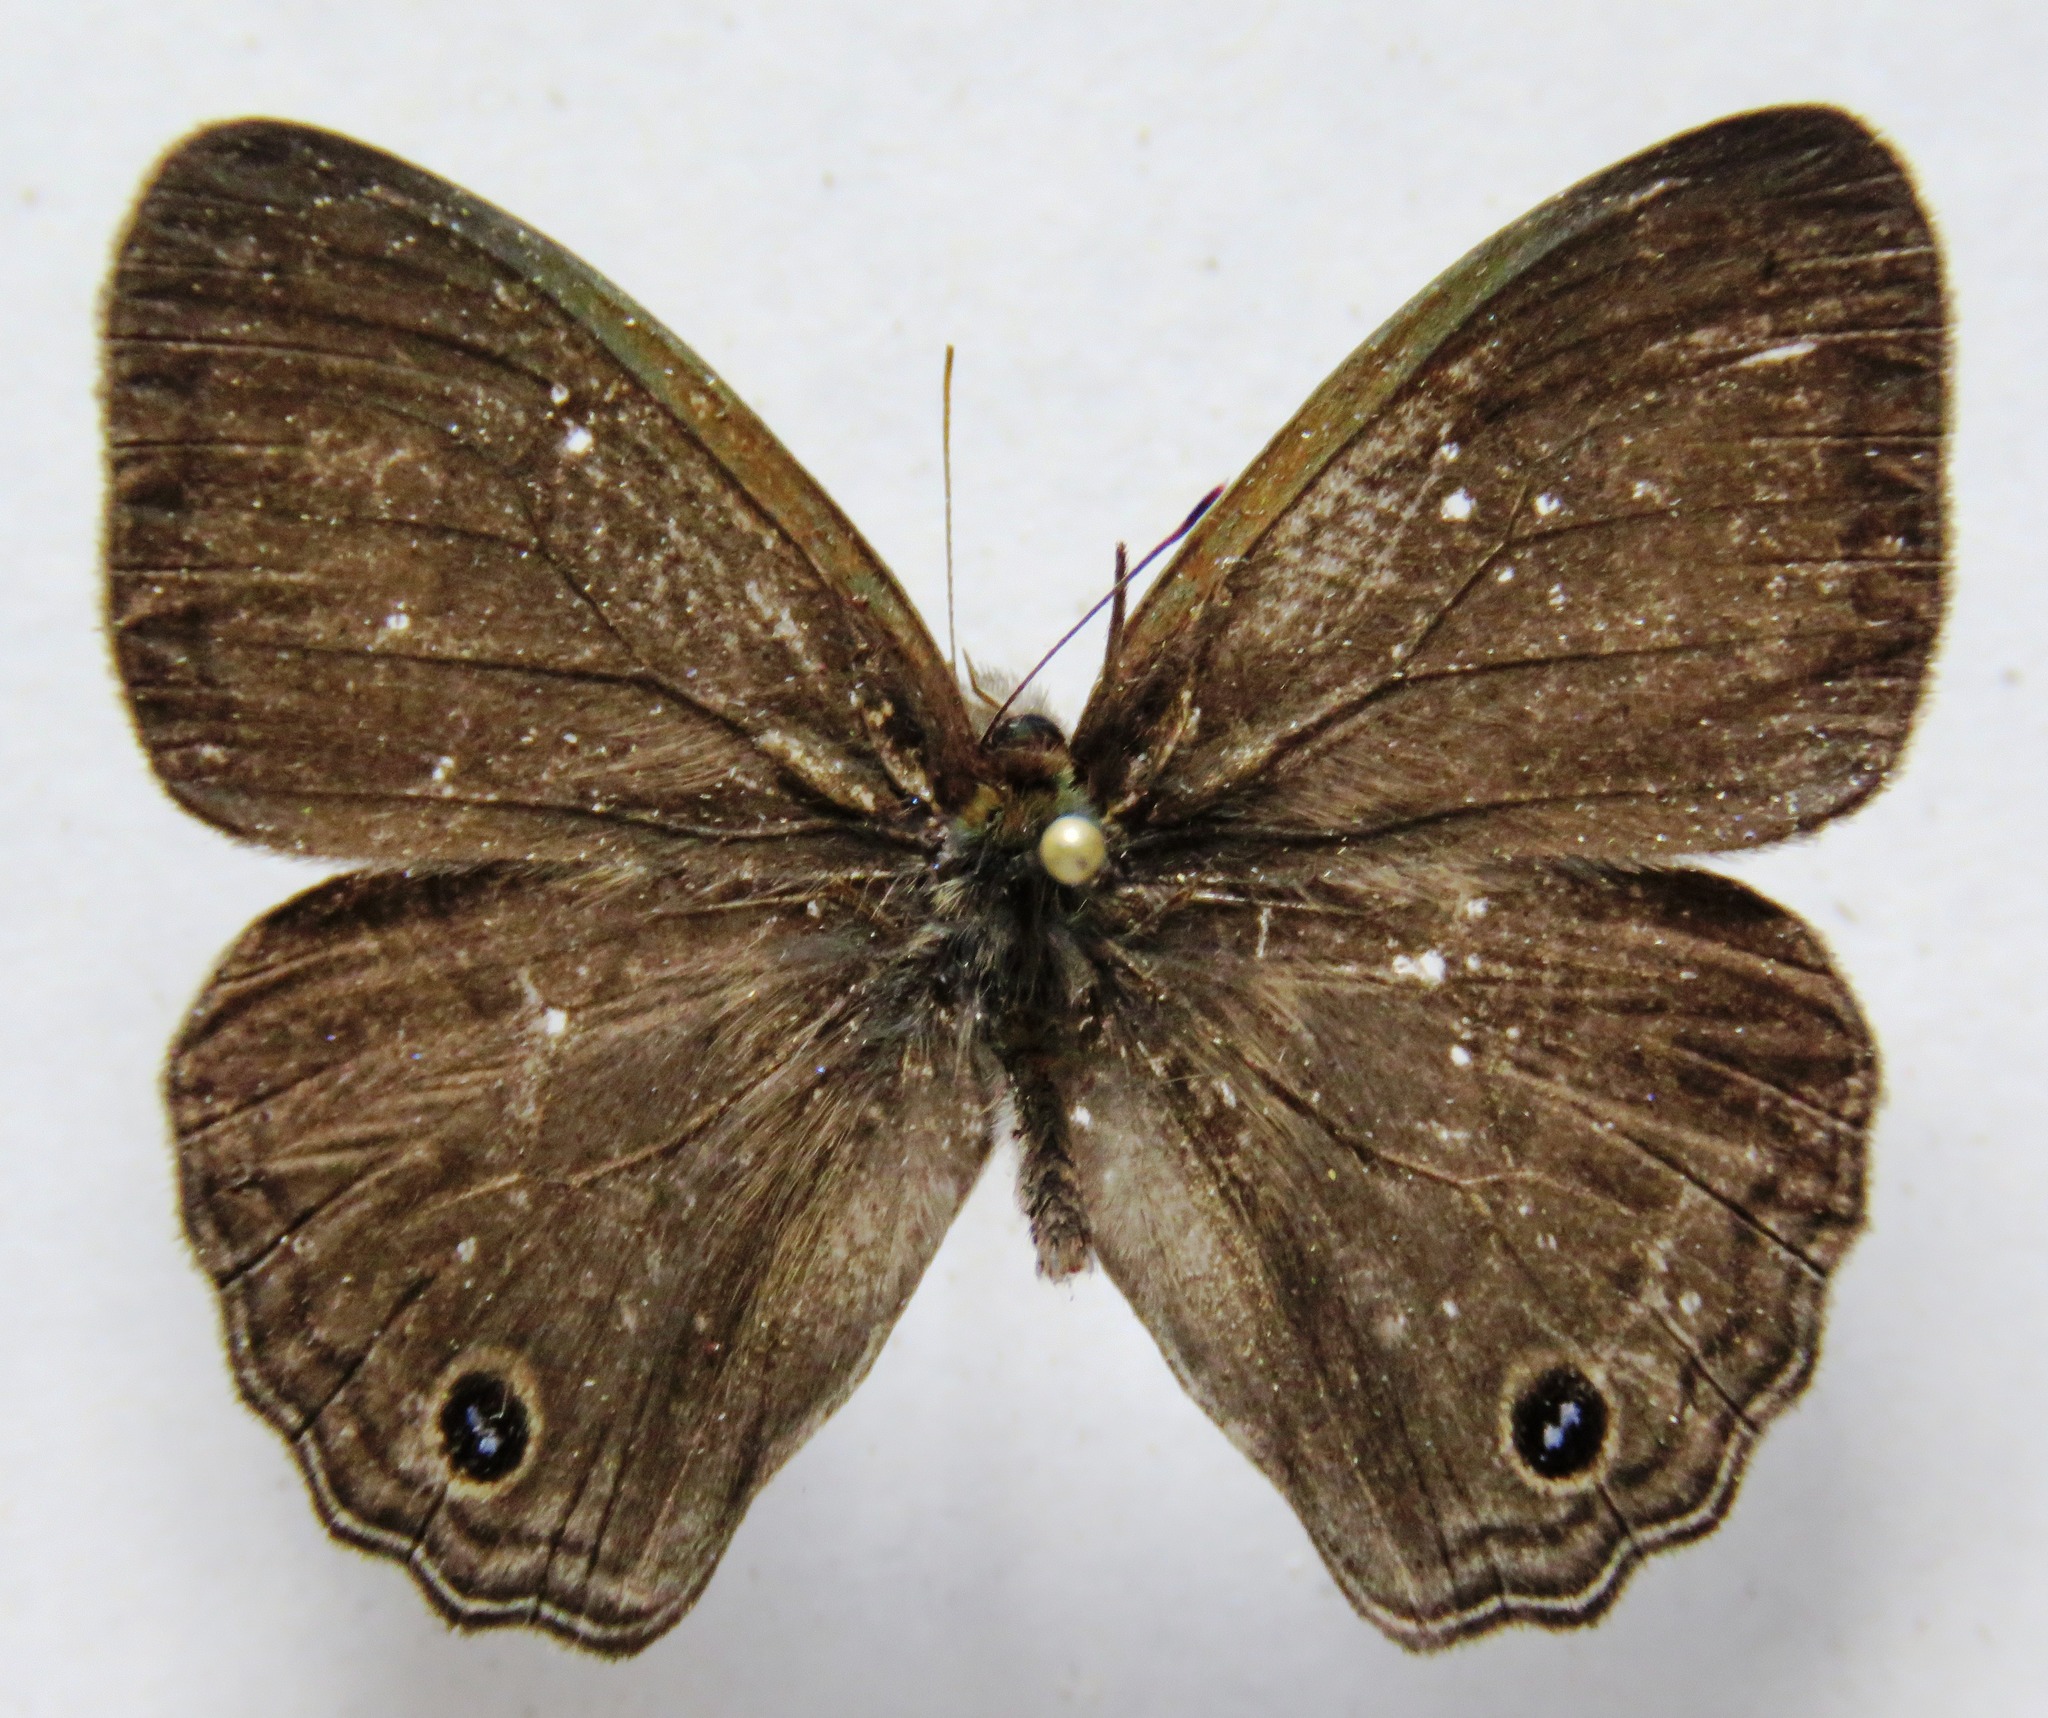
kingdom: Animalia
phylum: Arthropoda
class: Insecta
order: Lepidoptera
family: Nymphalidae
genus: Vareuptychia
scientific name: Vareuptychia similis
